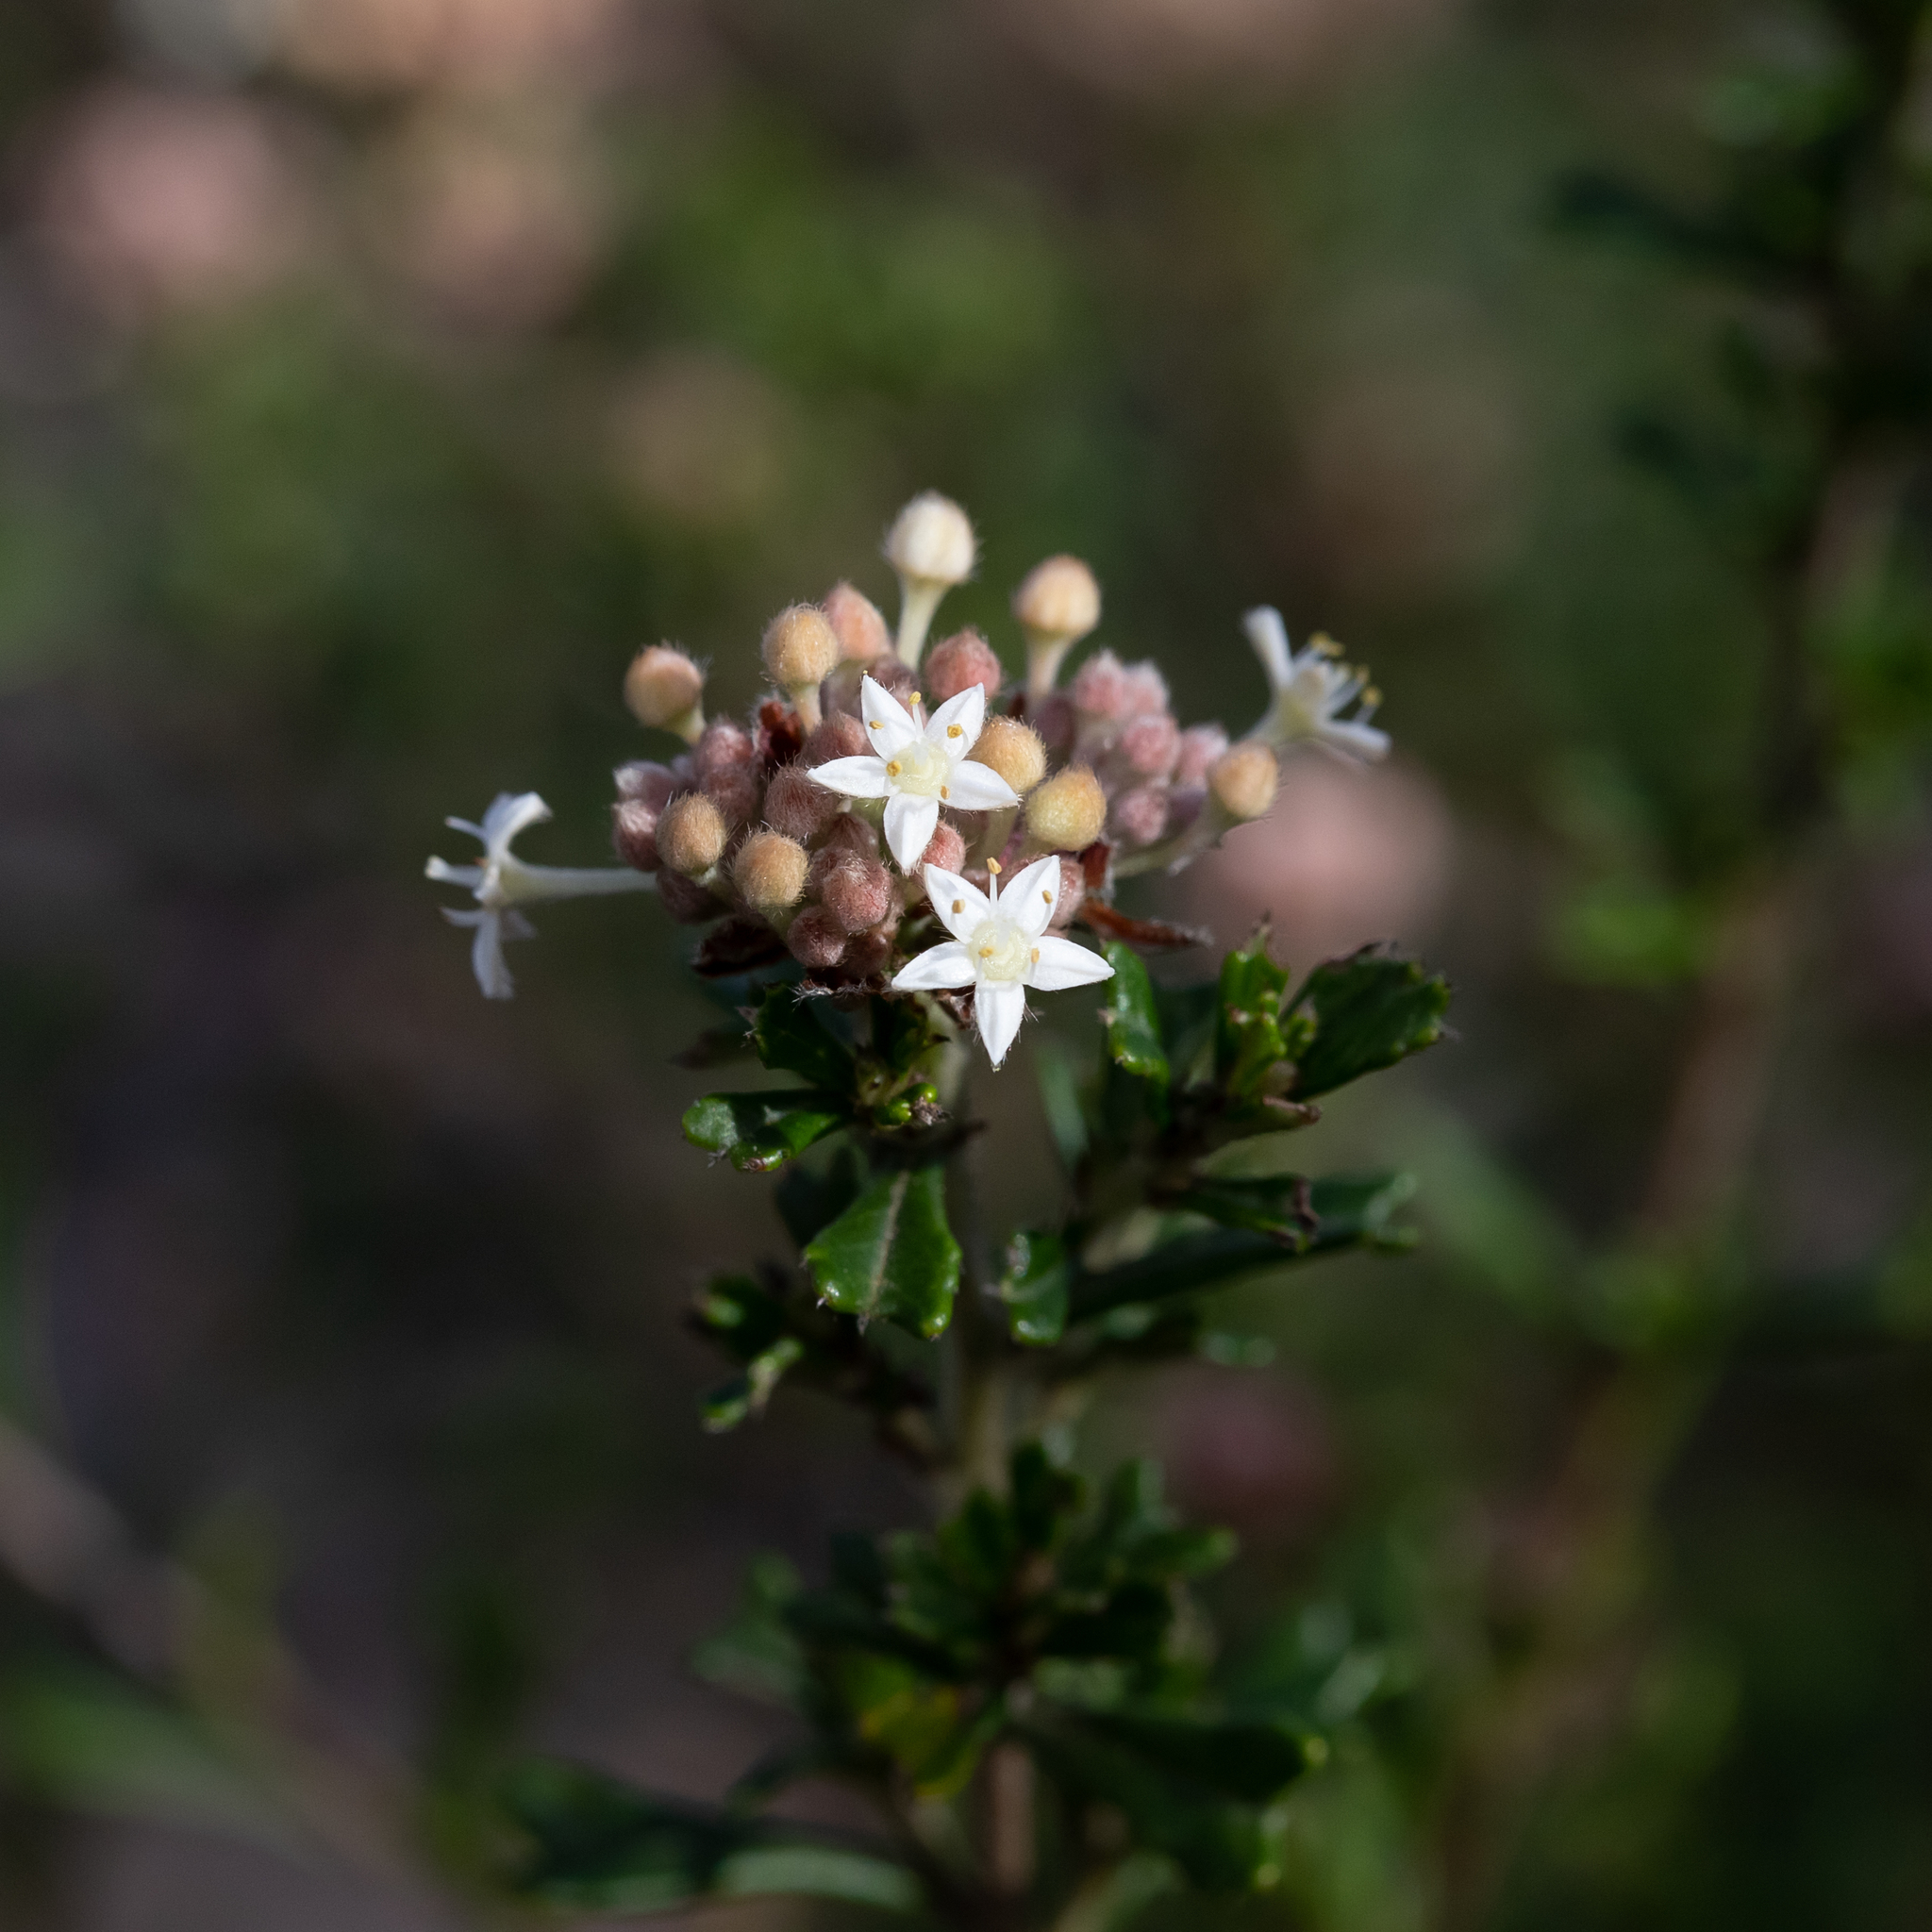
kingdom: Plantae
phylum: Tracheophyta
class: Magnoliopsida
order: Rosales
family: Rhamnaceae
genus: Pomaderris
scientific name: Pomaderris obcordata
